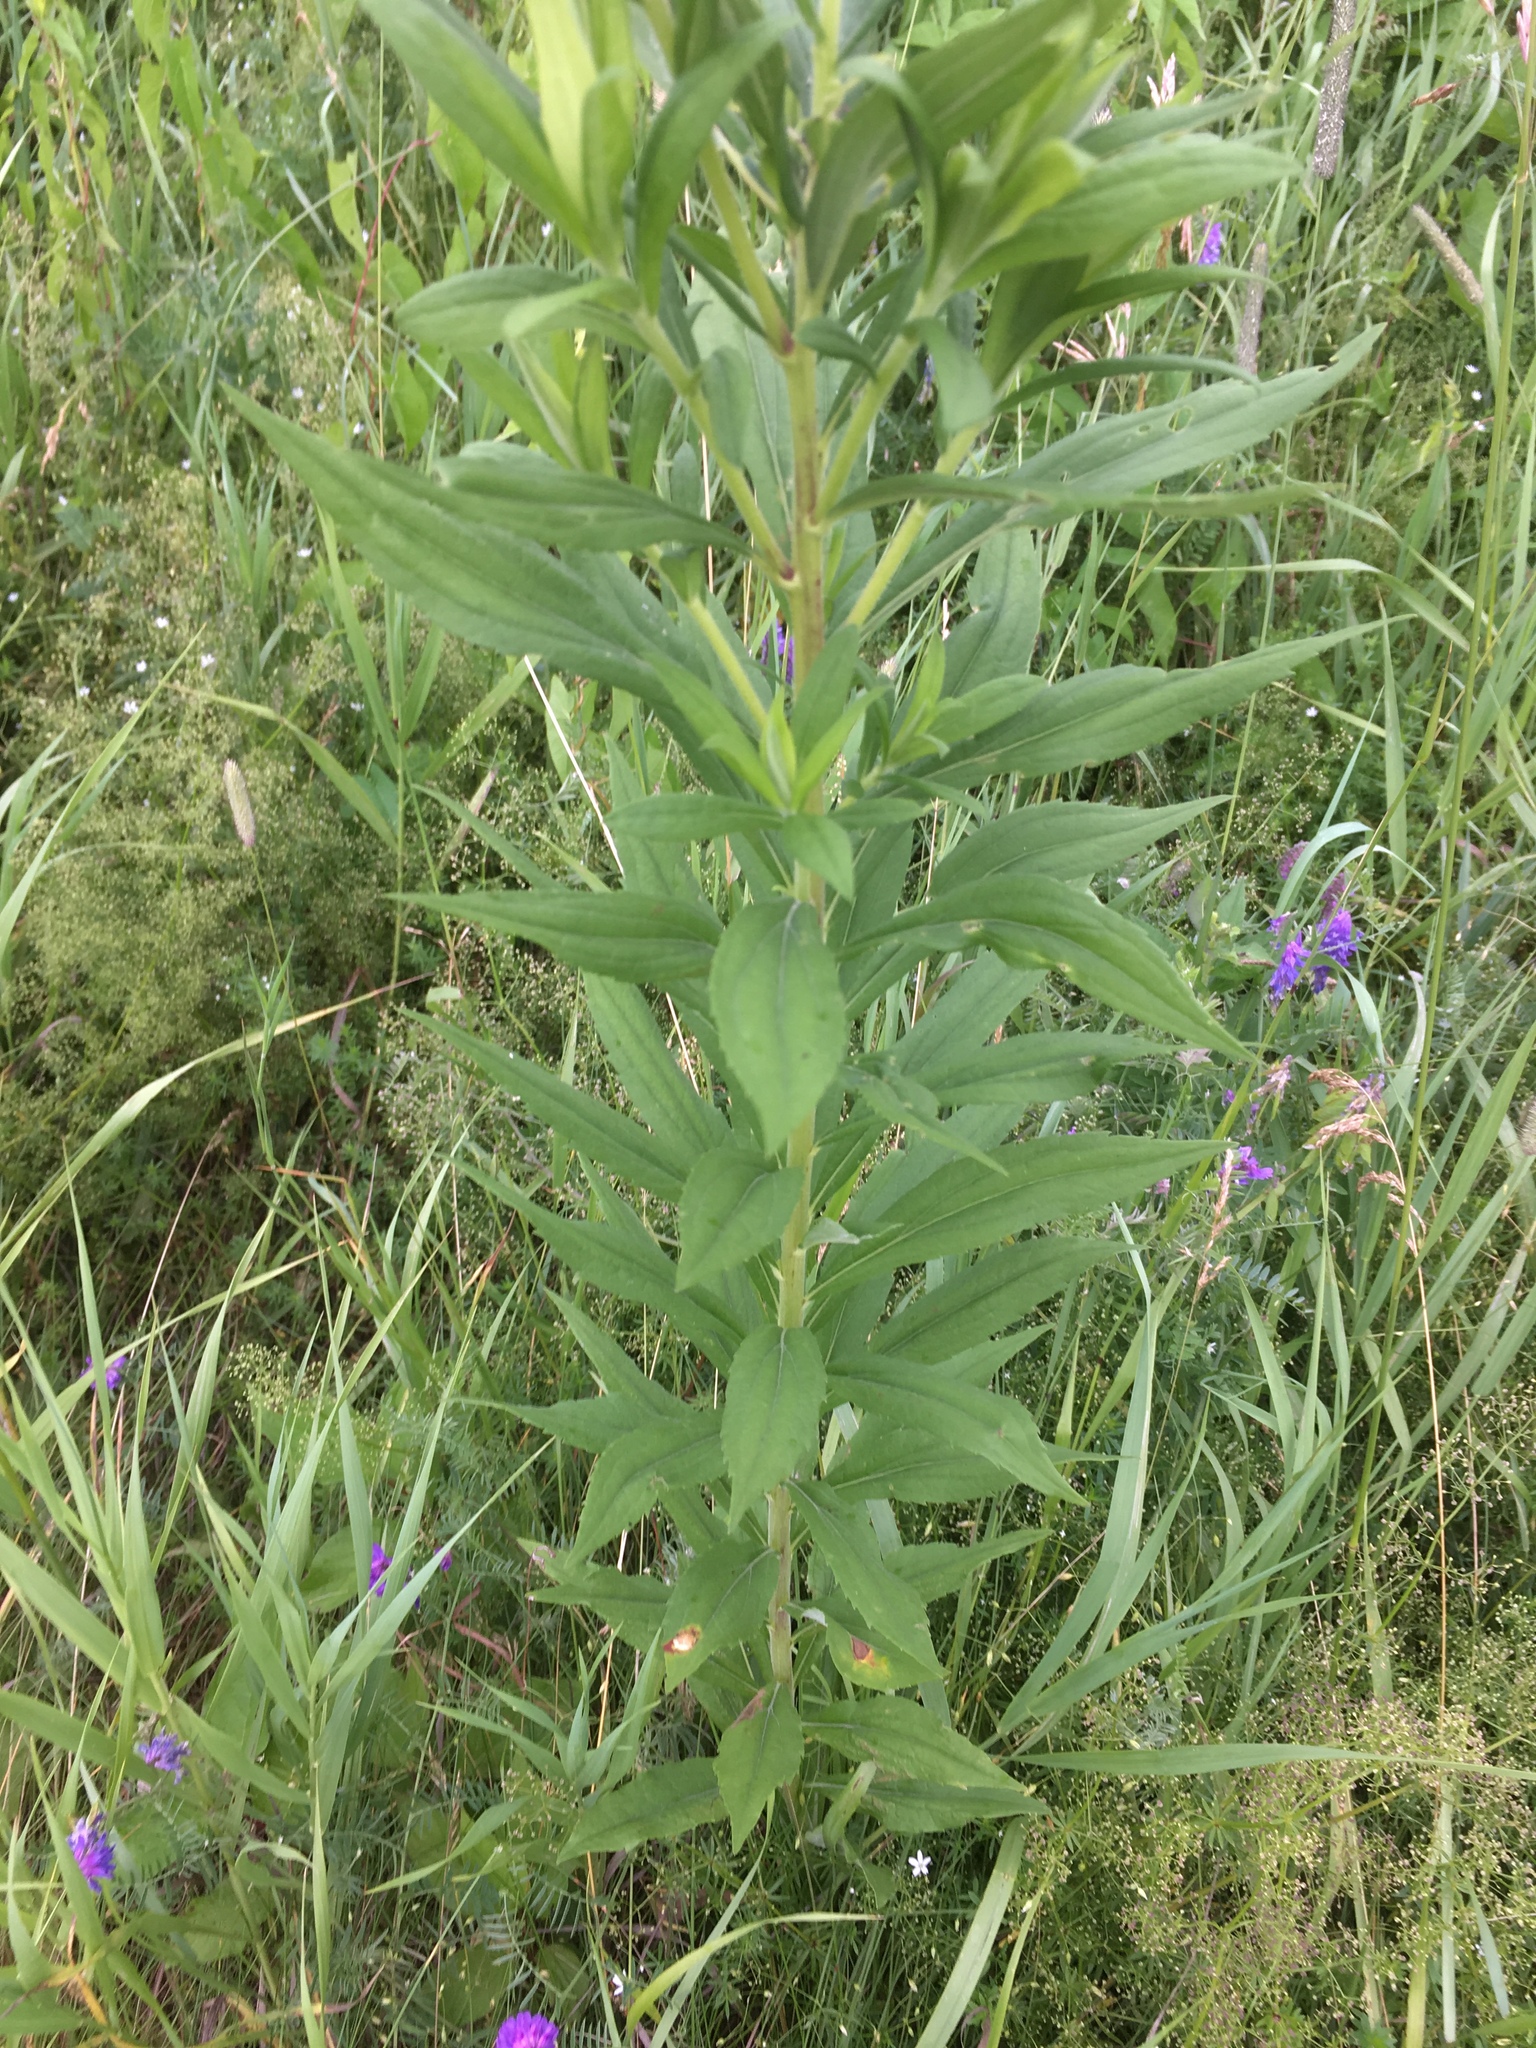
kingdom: Plantae
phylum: Tracheophyta
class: Magnoliopsida
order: Asterales
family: Asteraceae
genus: Solidago
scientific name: Solidago altissima
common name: Late goldenrod
